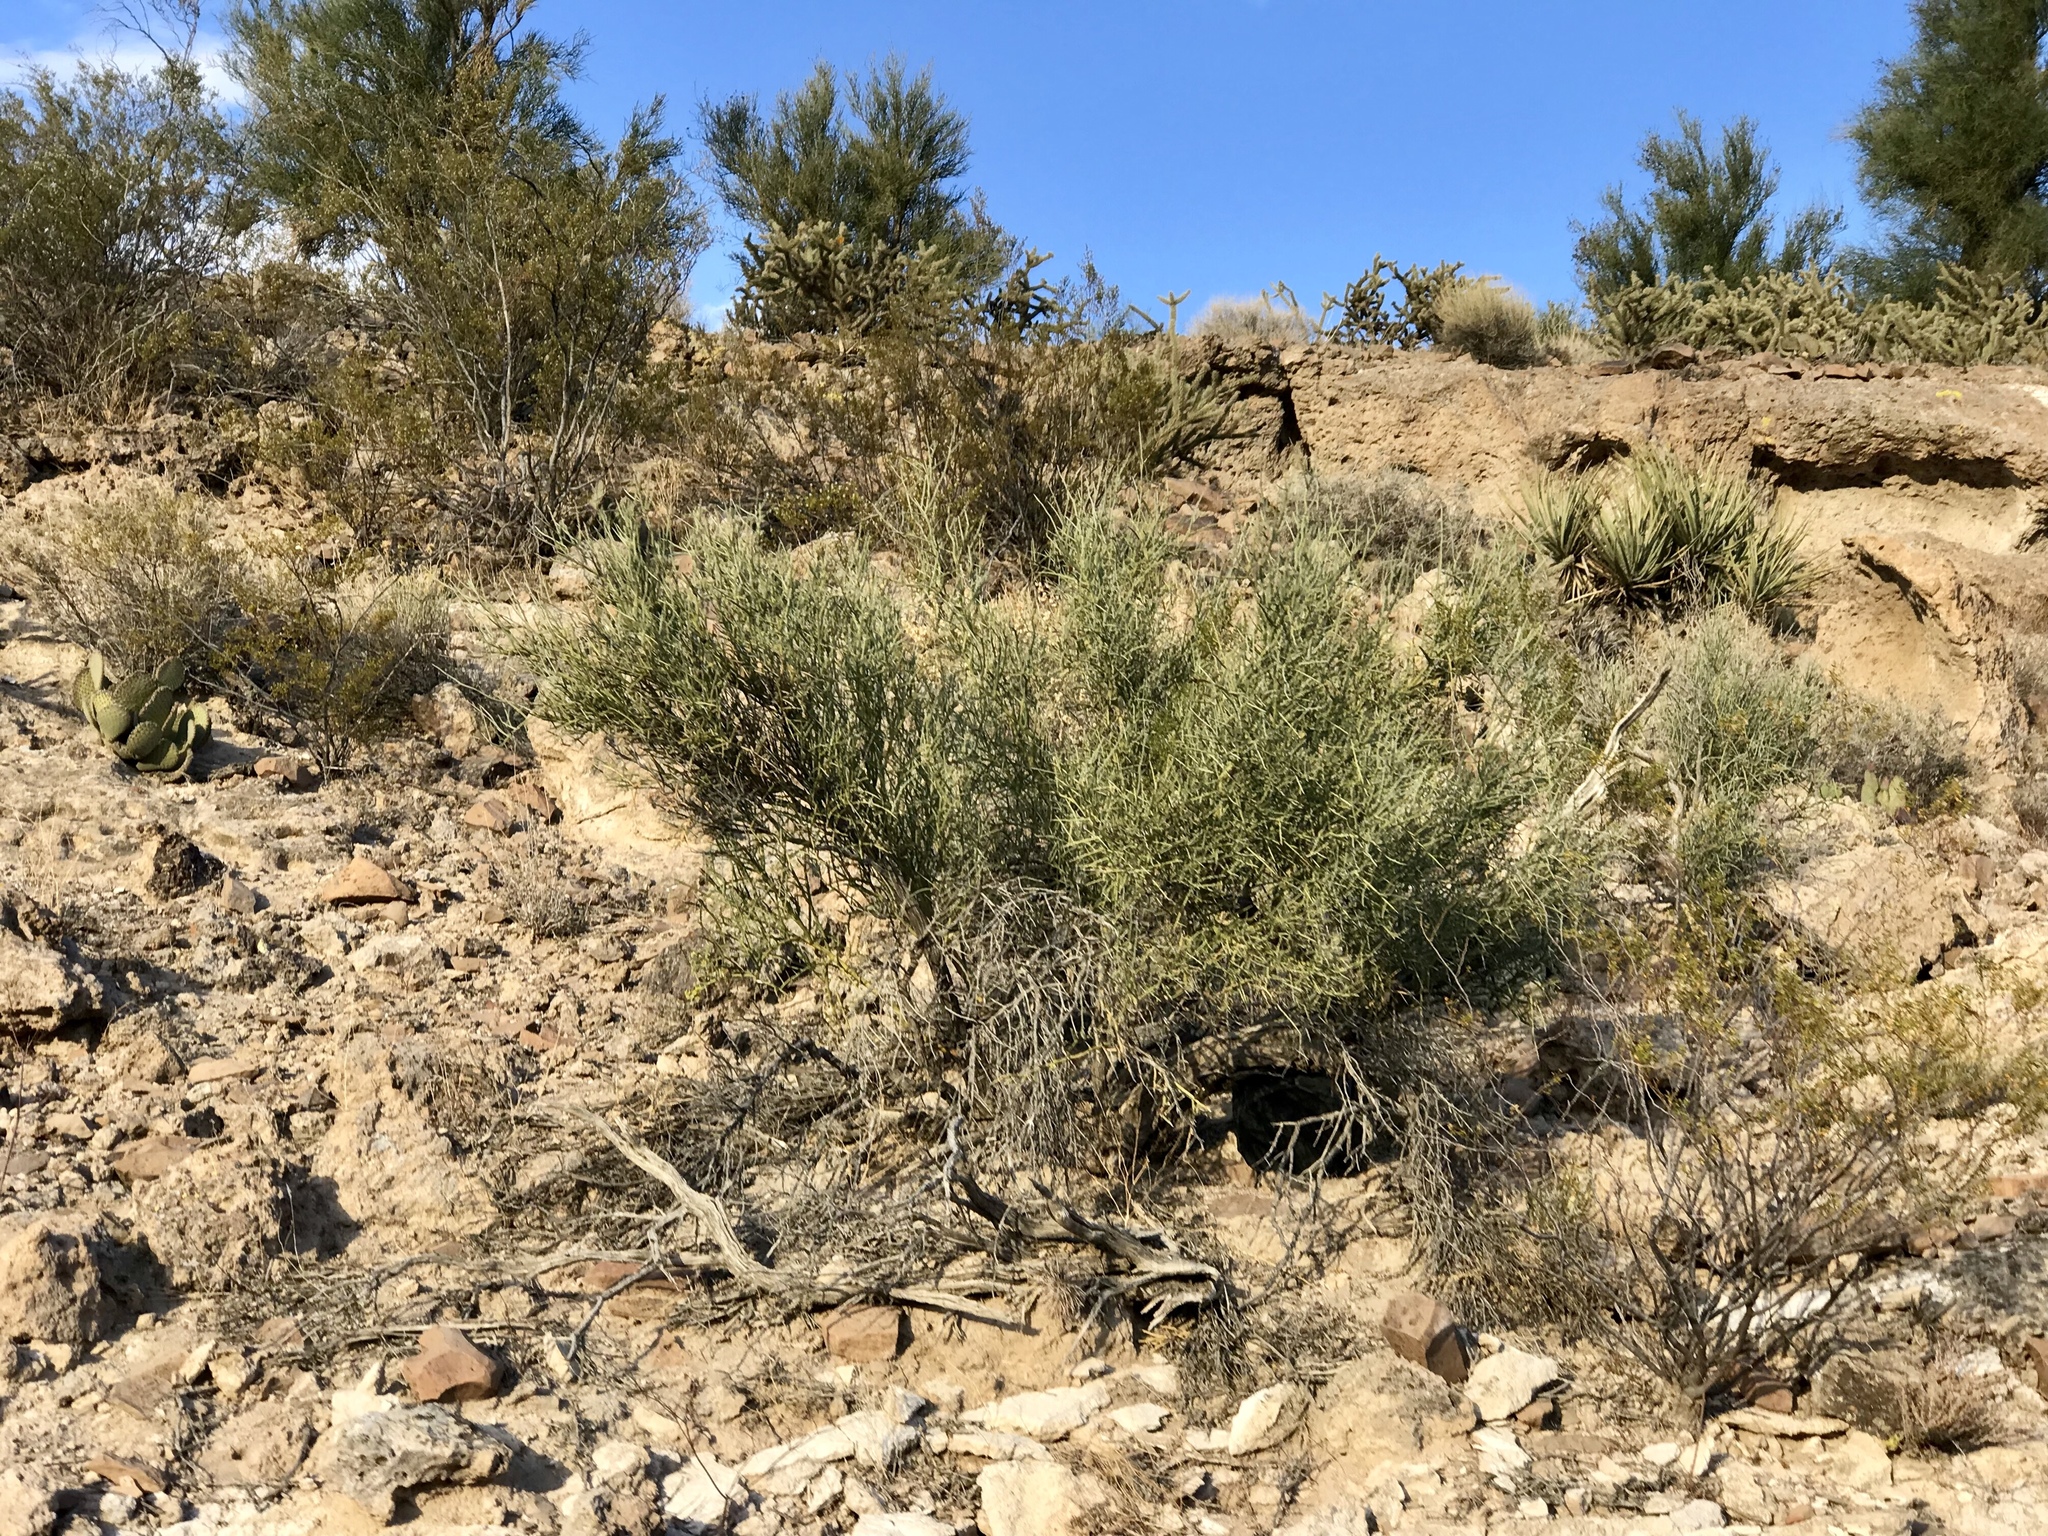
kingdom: Plantae
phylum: Tracheophyta
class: Magnoliopsida
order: Celastrales
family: Celastraceae
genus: Canotia
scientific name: Canotia holacantha
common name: Crucifixion thorns
